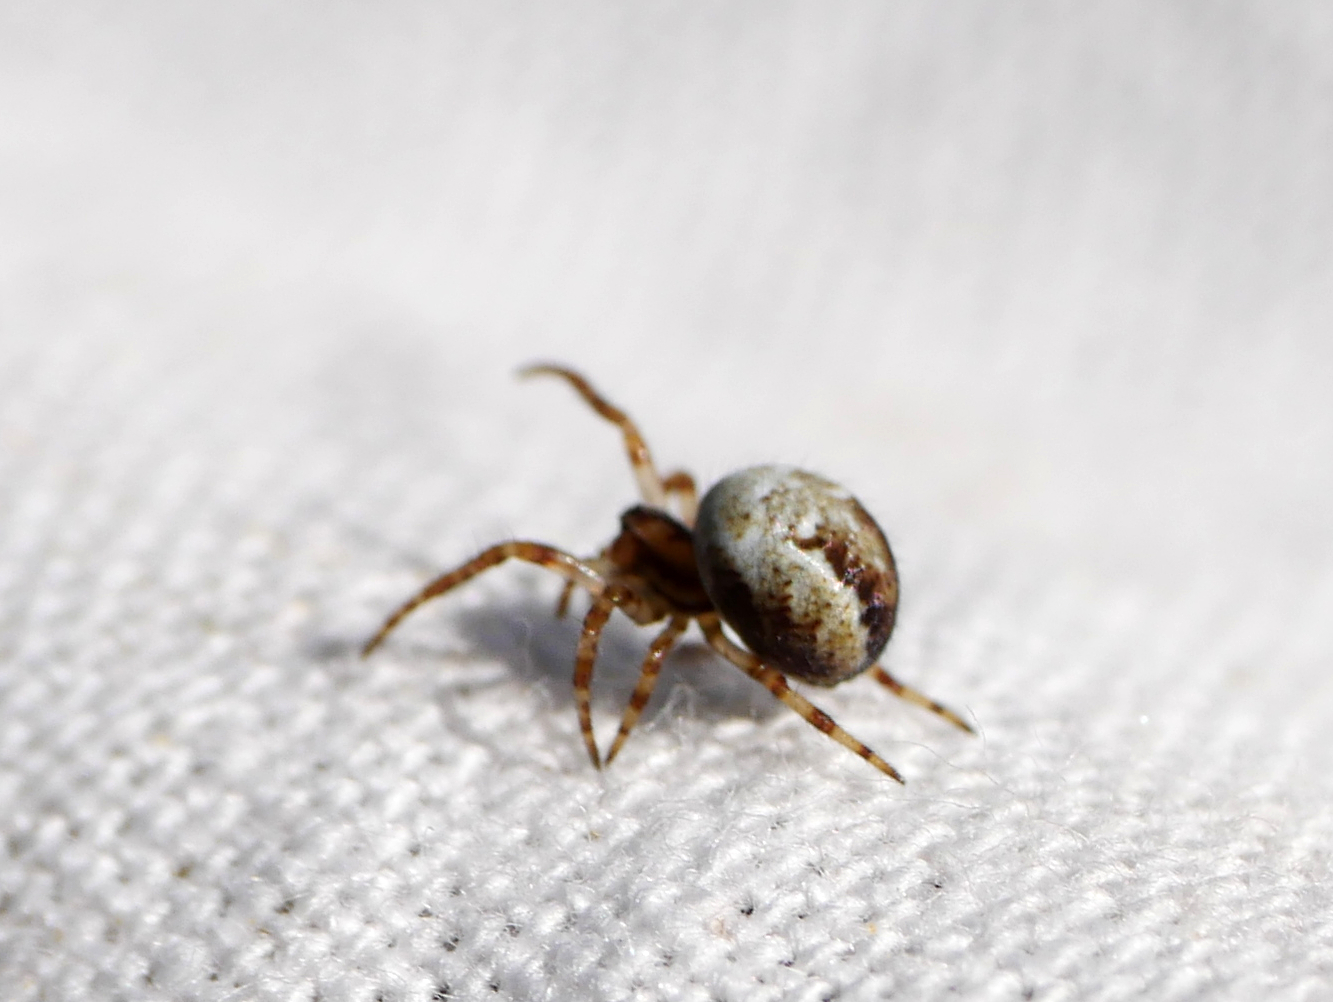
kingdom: Animalia
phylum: Arthropoda
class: Arachnida
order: Araneae
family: Araneidae
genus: Araneus
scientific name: Araneus quadratus
